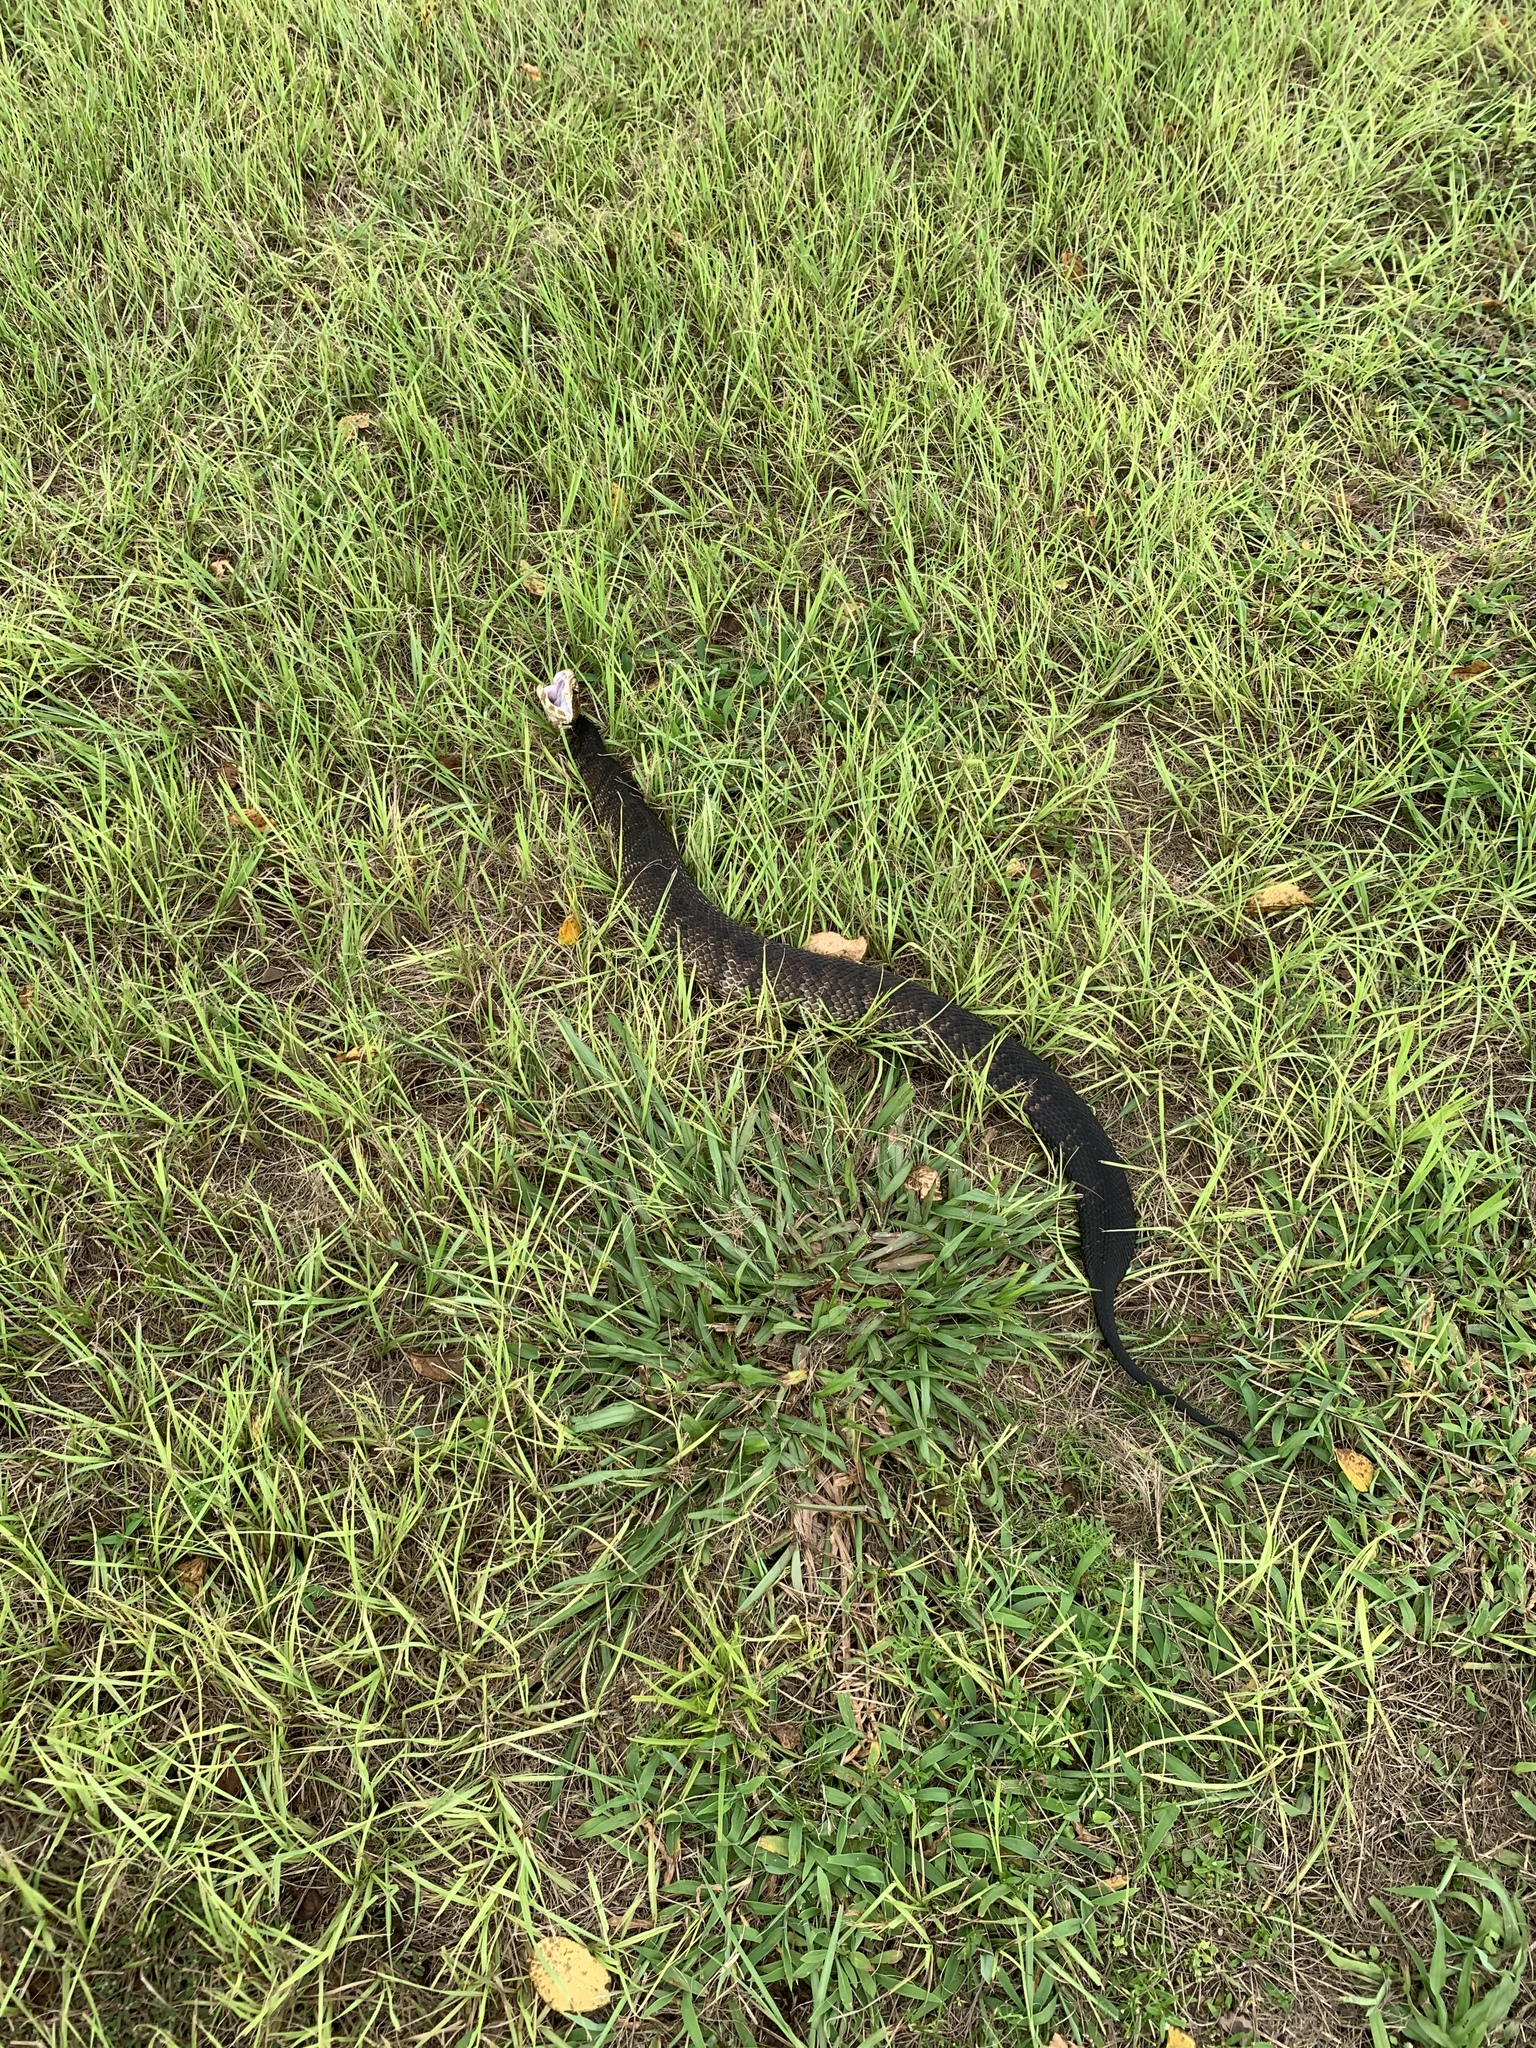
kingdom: Animalia
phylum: Chordata
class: Squamata
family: Viperidae
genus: Agkistrodon
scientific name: Agkistrodon conanti
